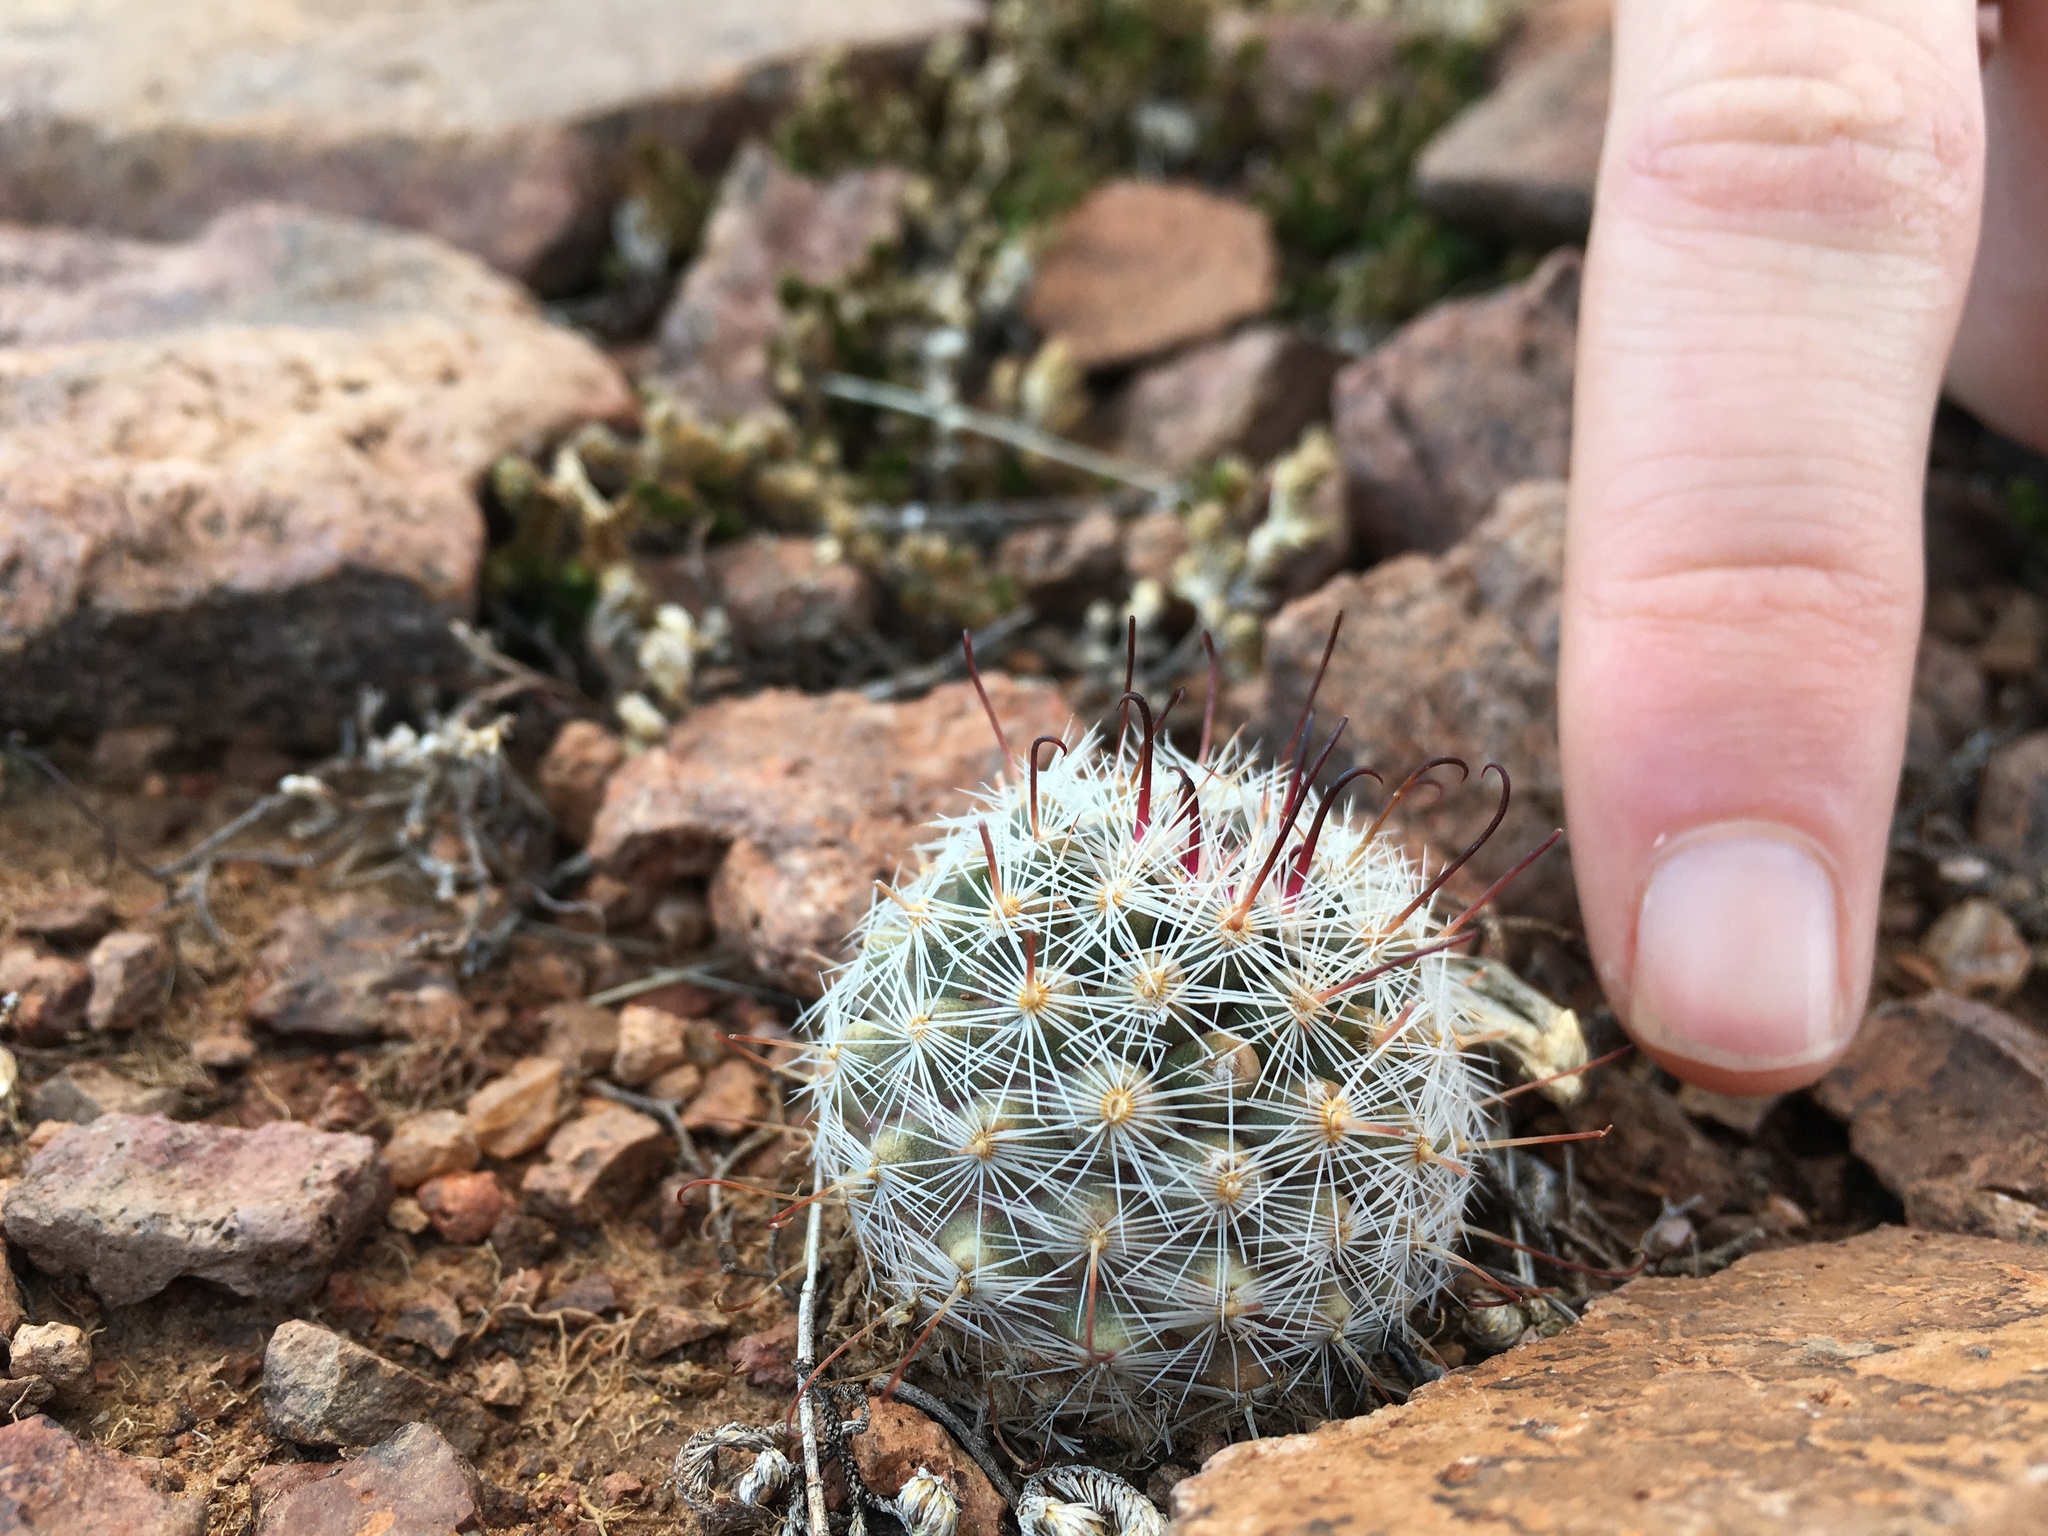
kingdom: Plantae
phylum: Tracheophyta
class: Magnoliopsida
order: Caryophyllales
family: Cactaceae
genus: Cochemiea
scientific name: Cochemiea grahamii
